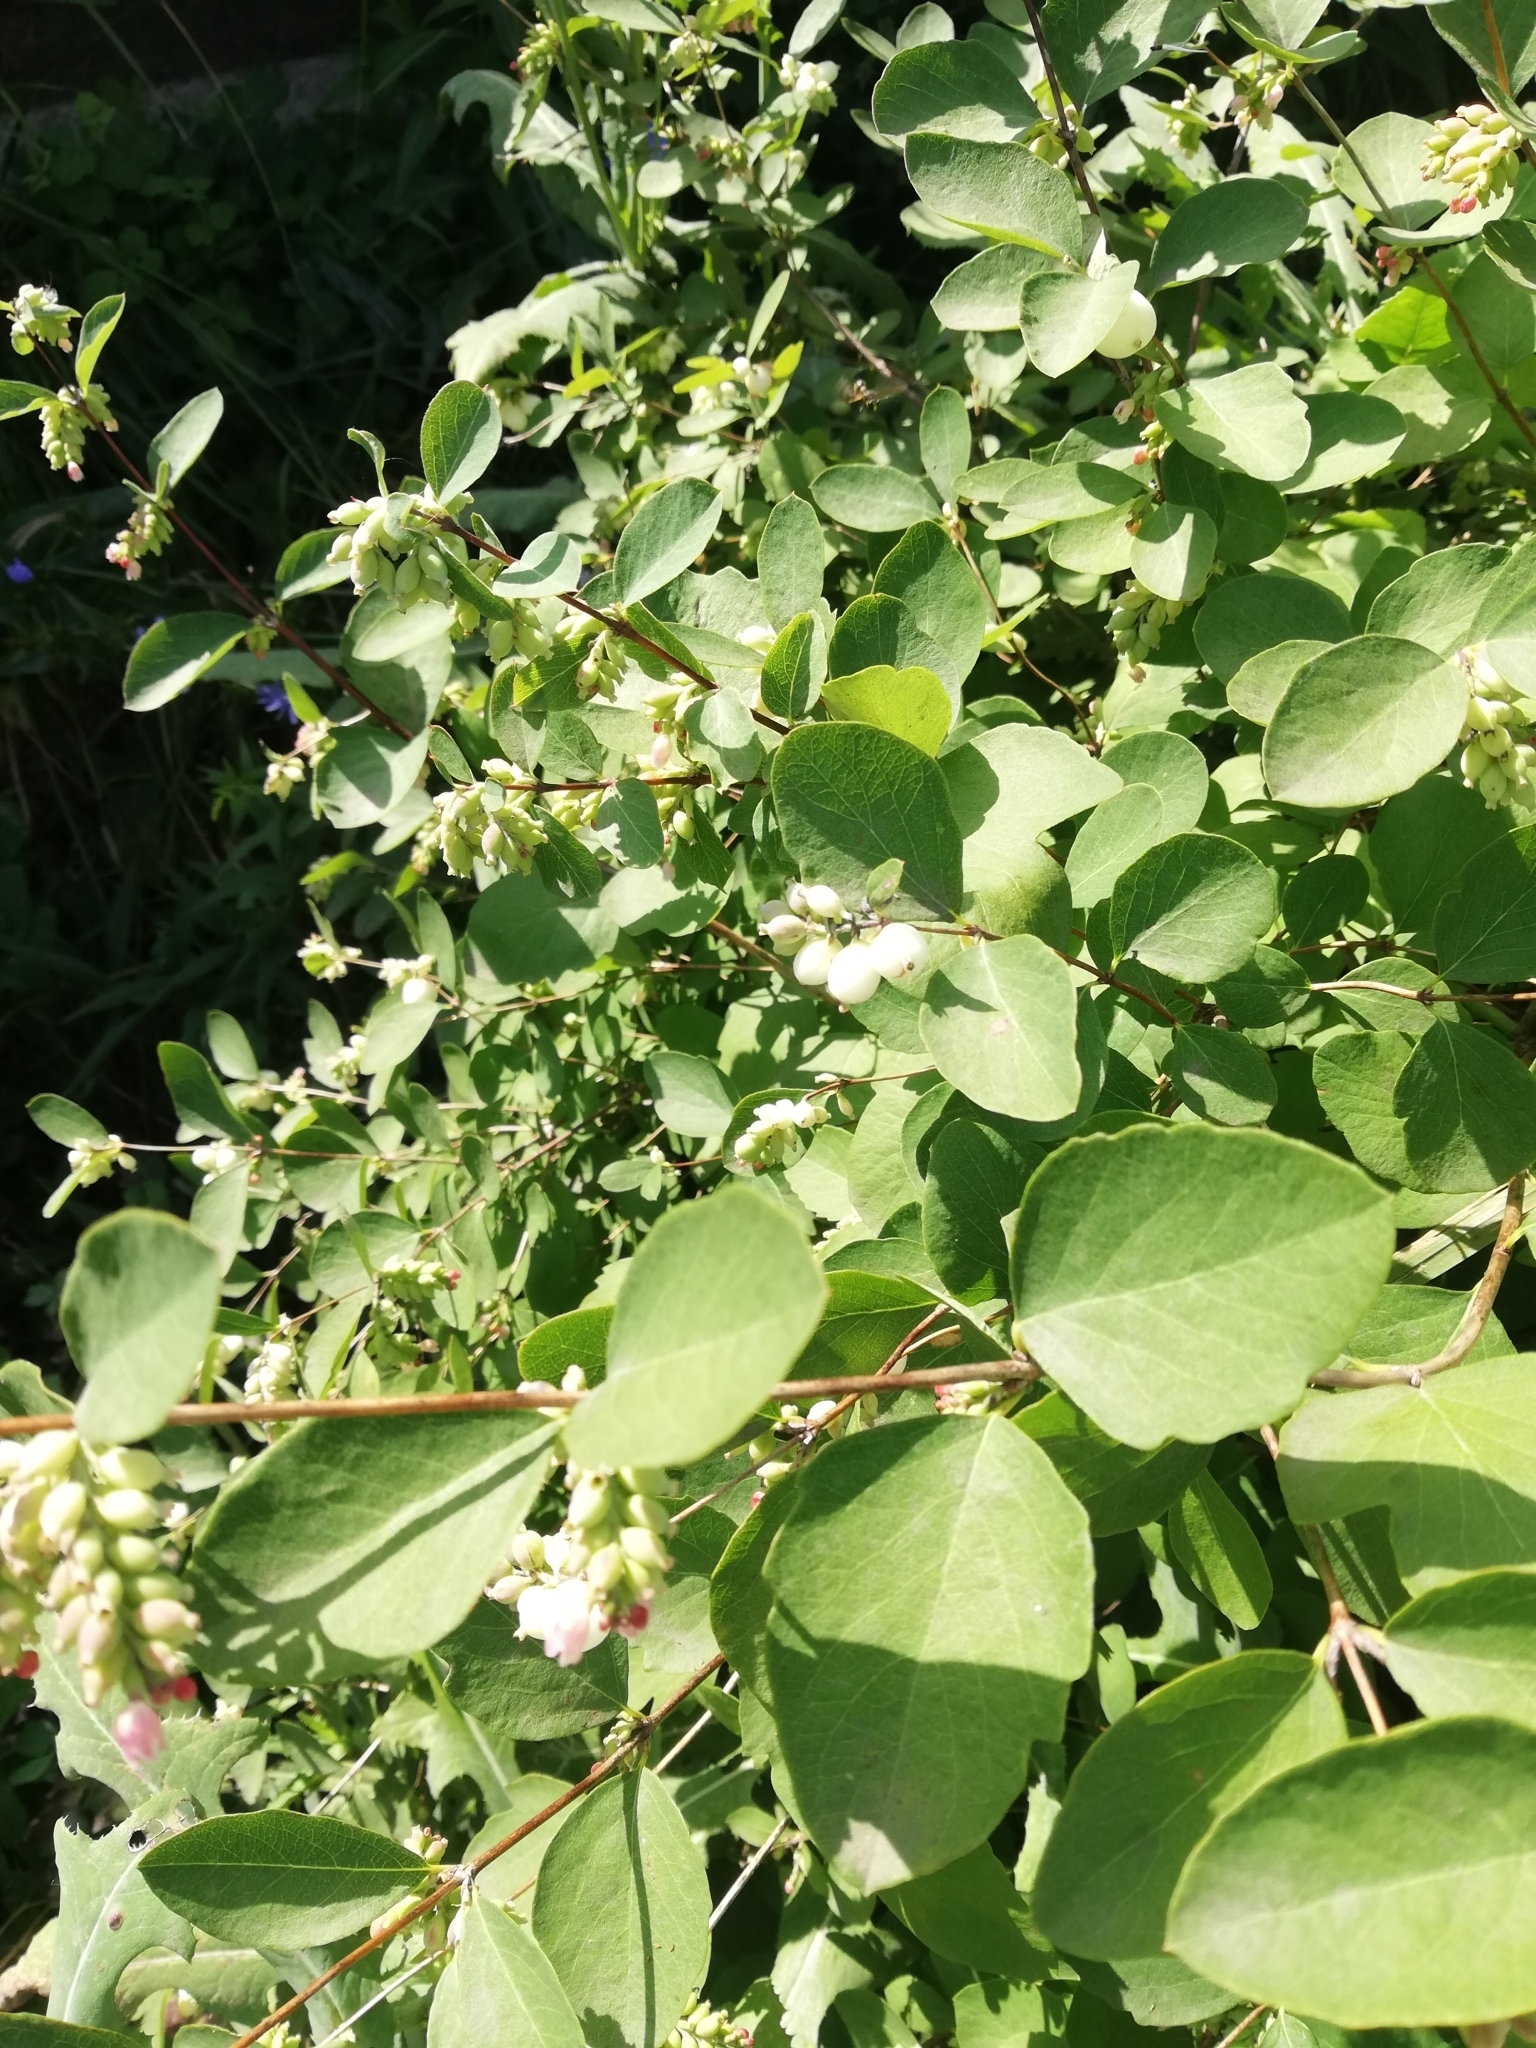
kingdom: Plantae
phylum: Tracheophyta
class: Magnoliopsida
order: Dipsacales
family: Caprifoliaceae
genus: Symphoricarpos
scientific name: Symphoricarpos albus
